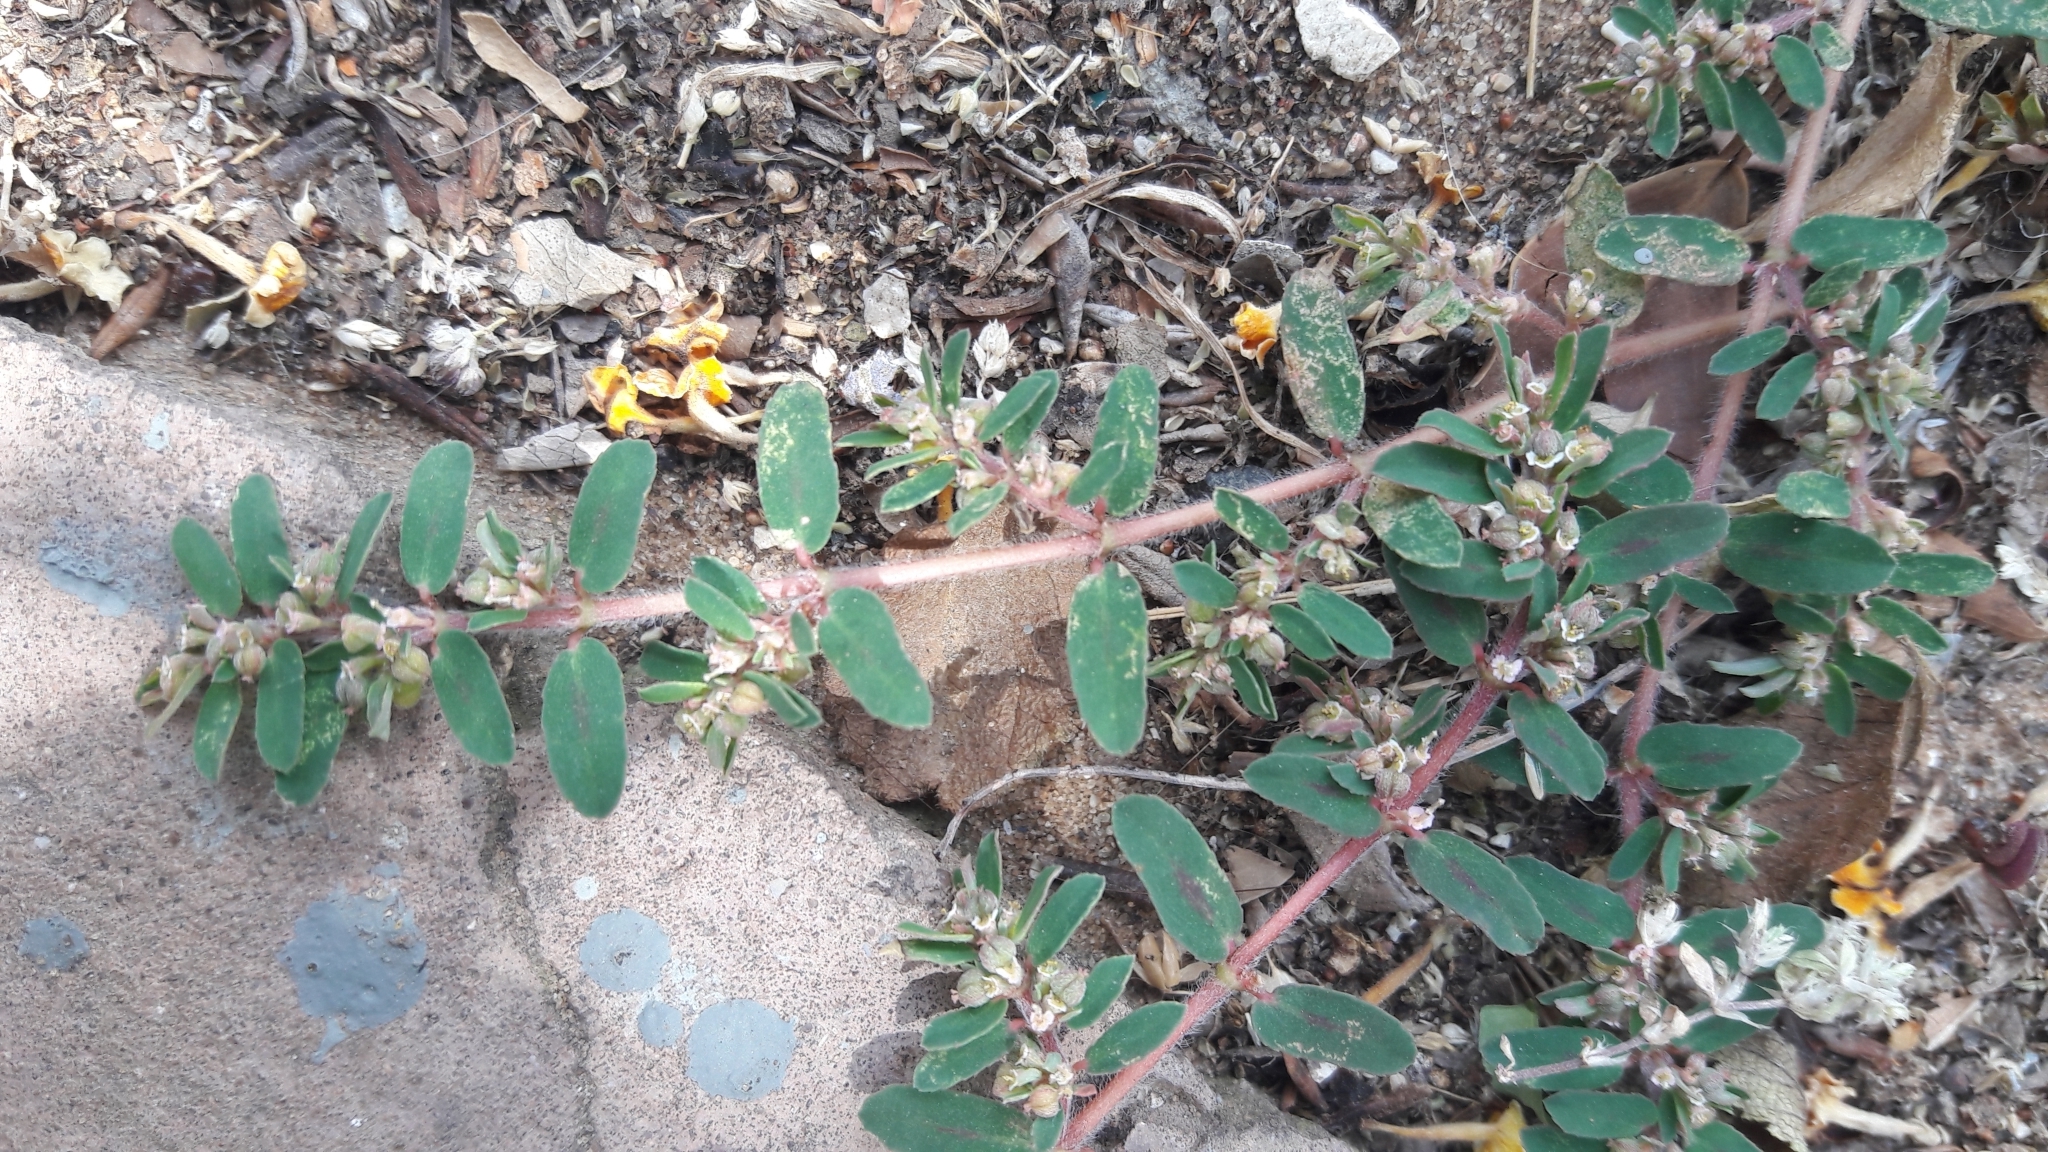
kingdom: Plantae
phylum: Tracheophyta
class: Magnoliopsida
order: Malpighiales
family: Euphorbiaceae
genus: Euphorbia
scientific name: Euphorbia maculata
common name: Spotted spurge
